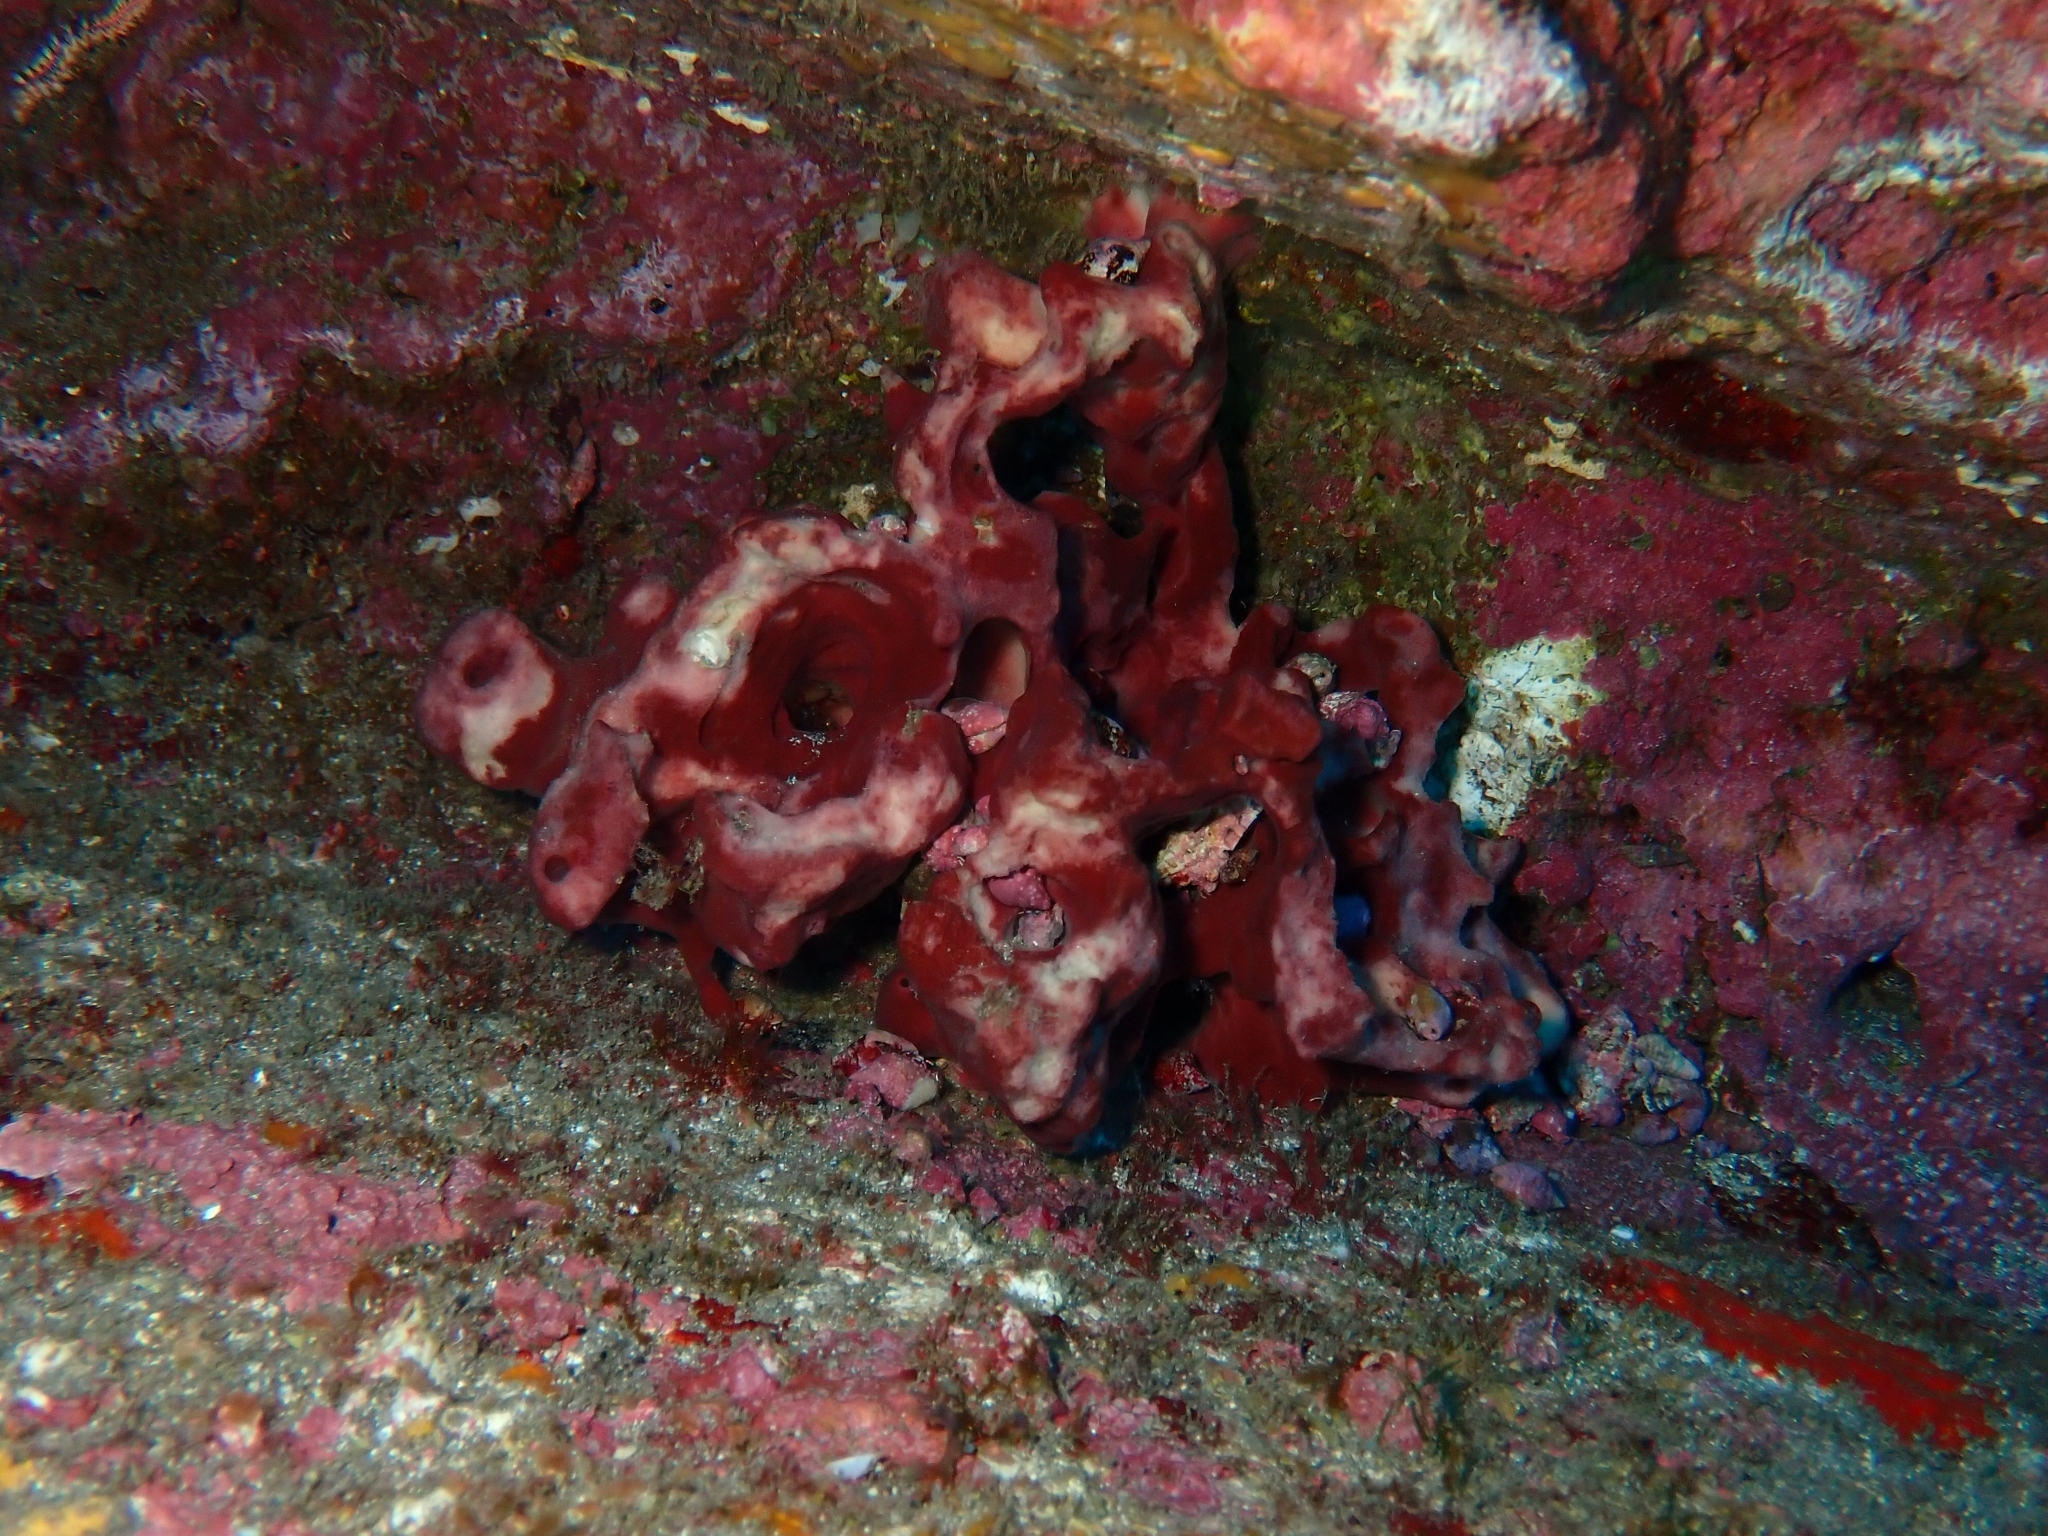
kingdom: Animalia
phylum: Porifera
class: Demospongiae
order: Haplosclerida
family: Petrosiidae
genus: Petrosia
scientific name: Petrosia ficiformis
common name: Stony sponge
